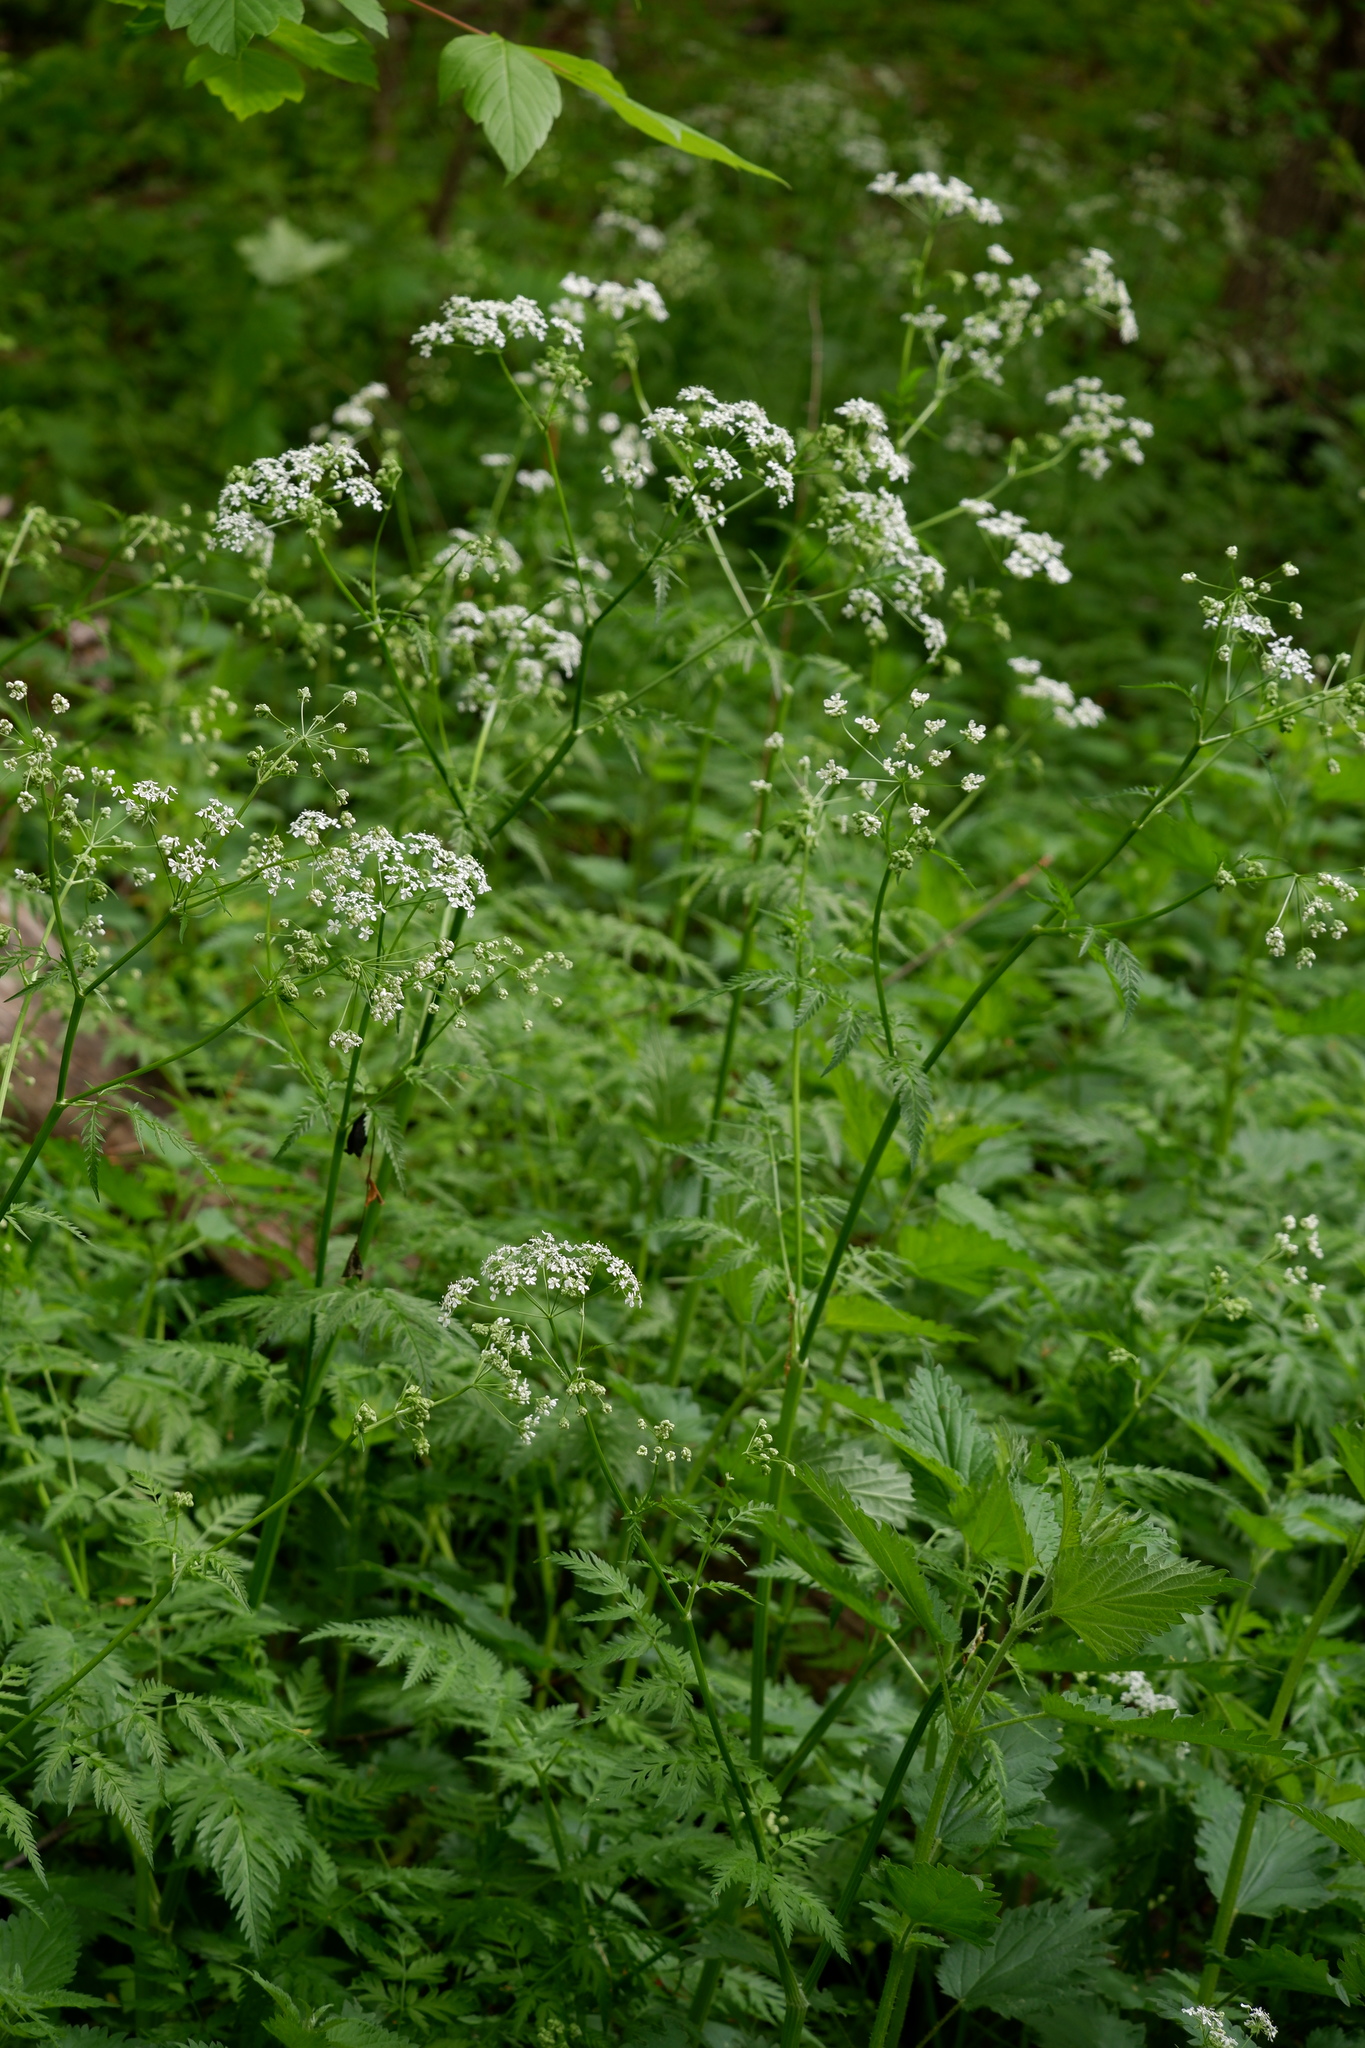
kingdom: Plantae
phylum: Tracheophyta
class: Magnoliopsida
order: Apiales
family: Apiaceae
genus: Anthriscus
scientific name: Anthriscus sylvestris
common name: Cow parsley
